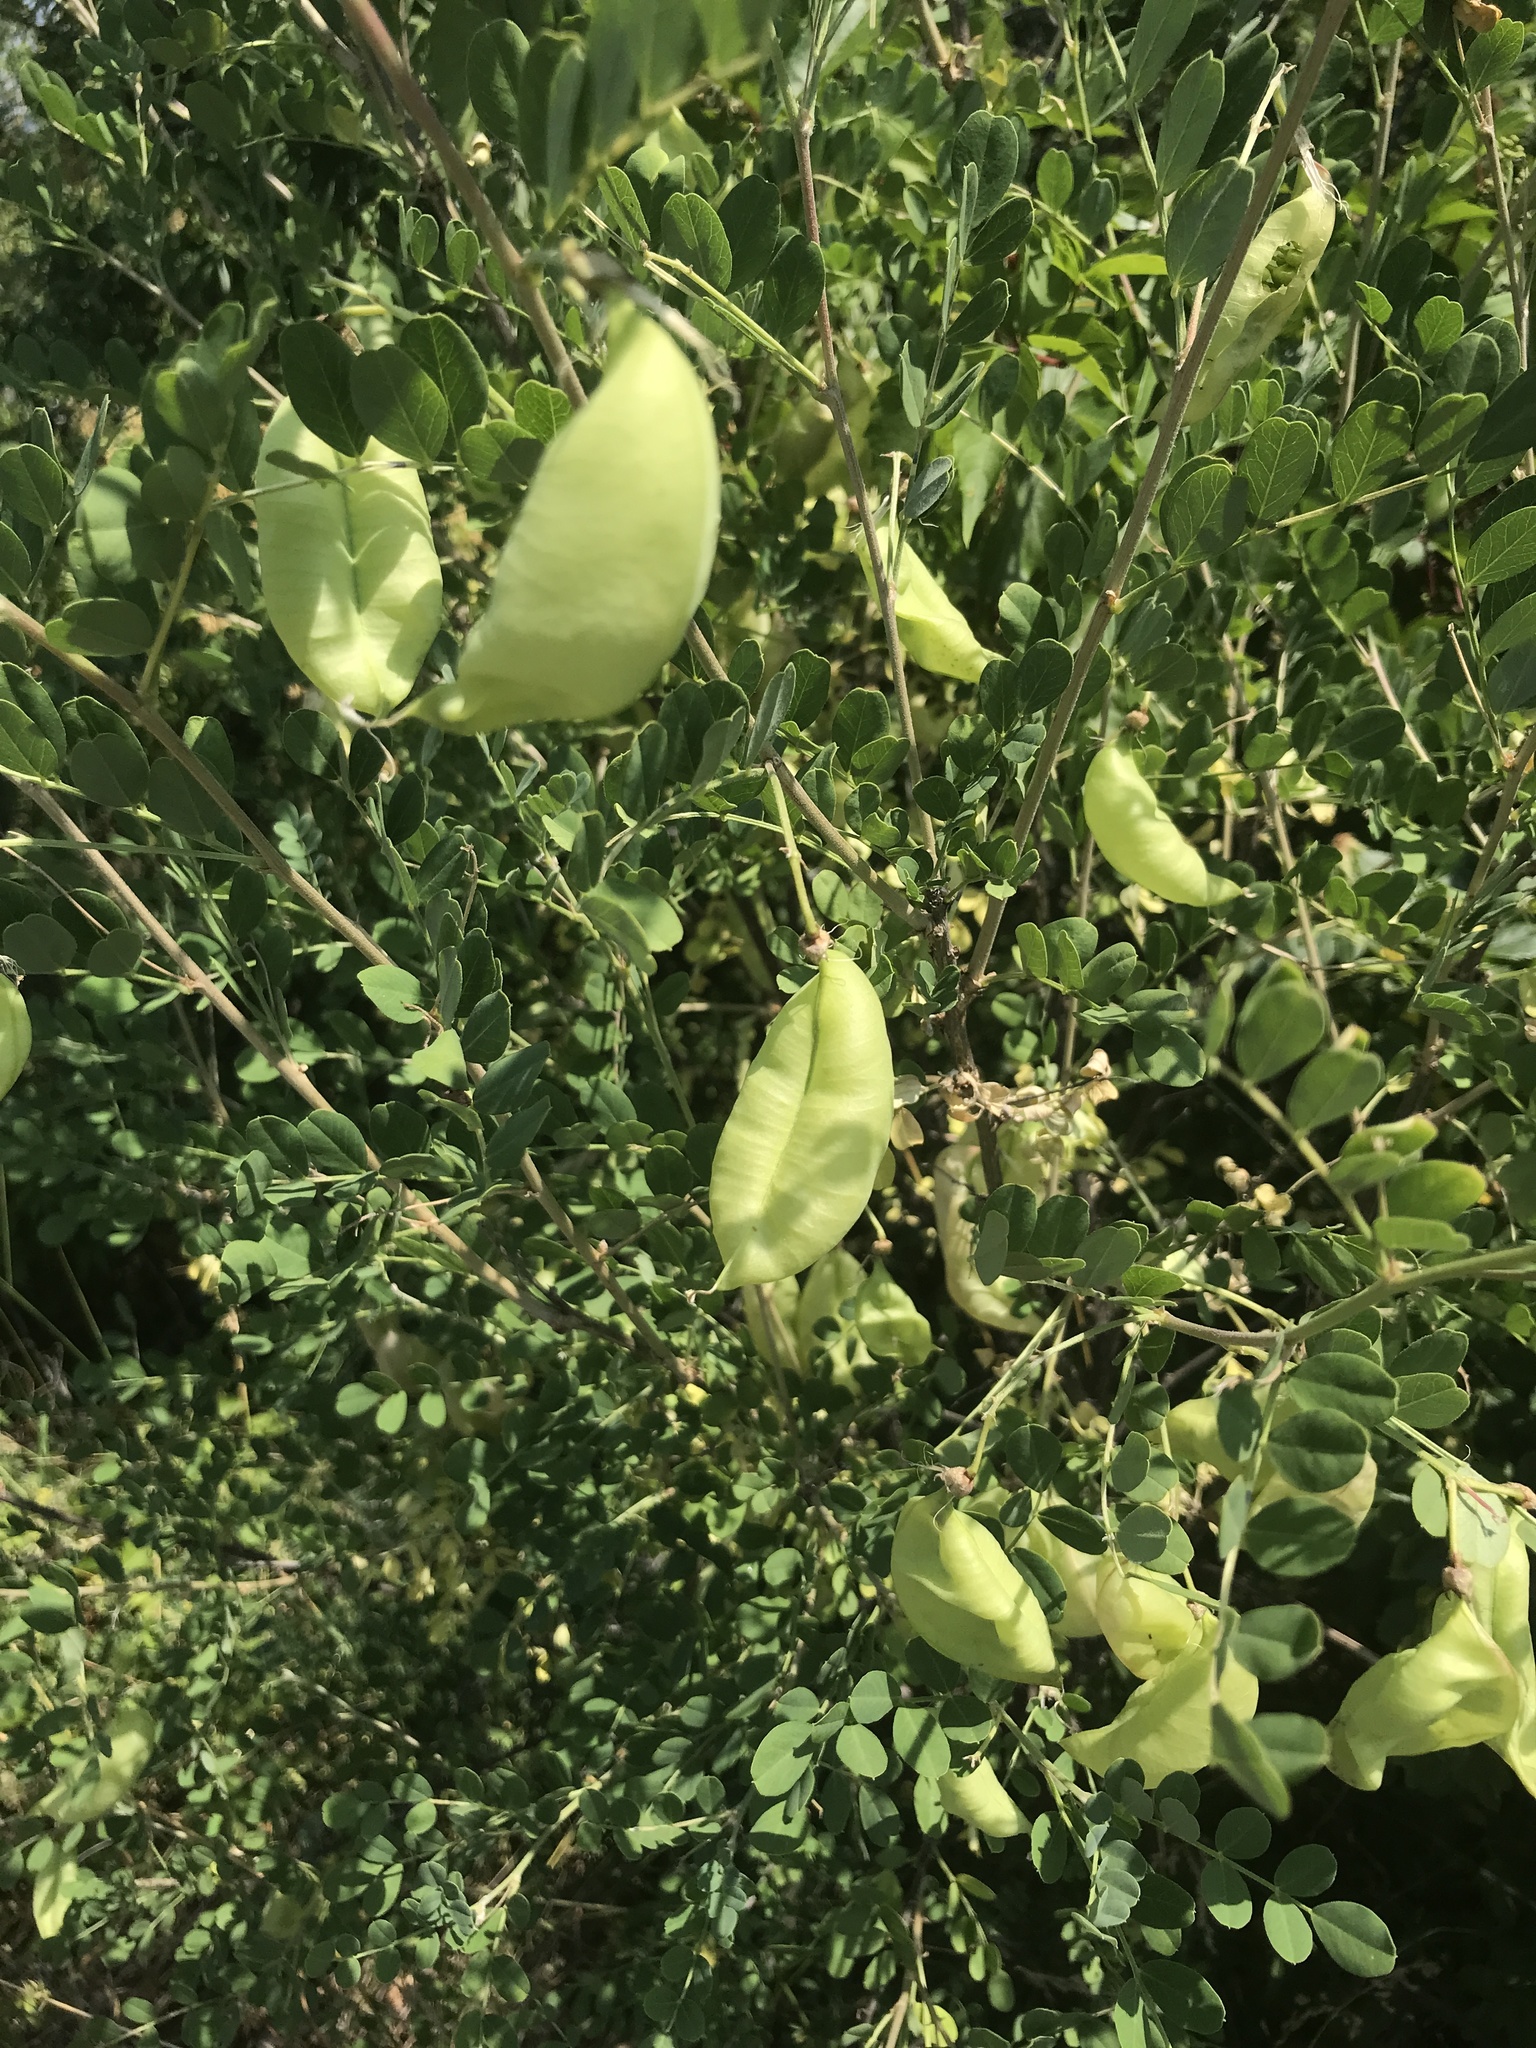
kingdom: Plantae
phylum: Tracheophyta
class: Magnoliopsida
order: Fabales
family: Fabaceae
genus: Colutea
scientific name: Colutea arborescens
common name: Bladder-senna
